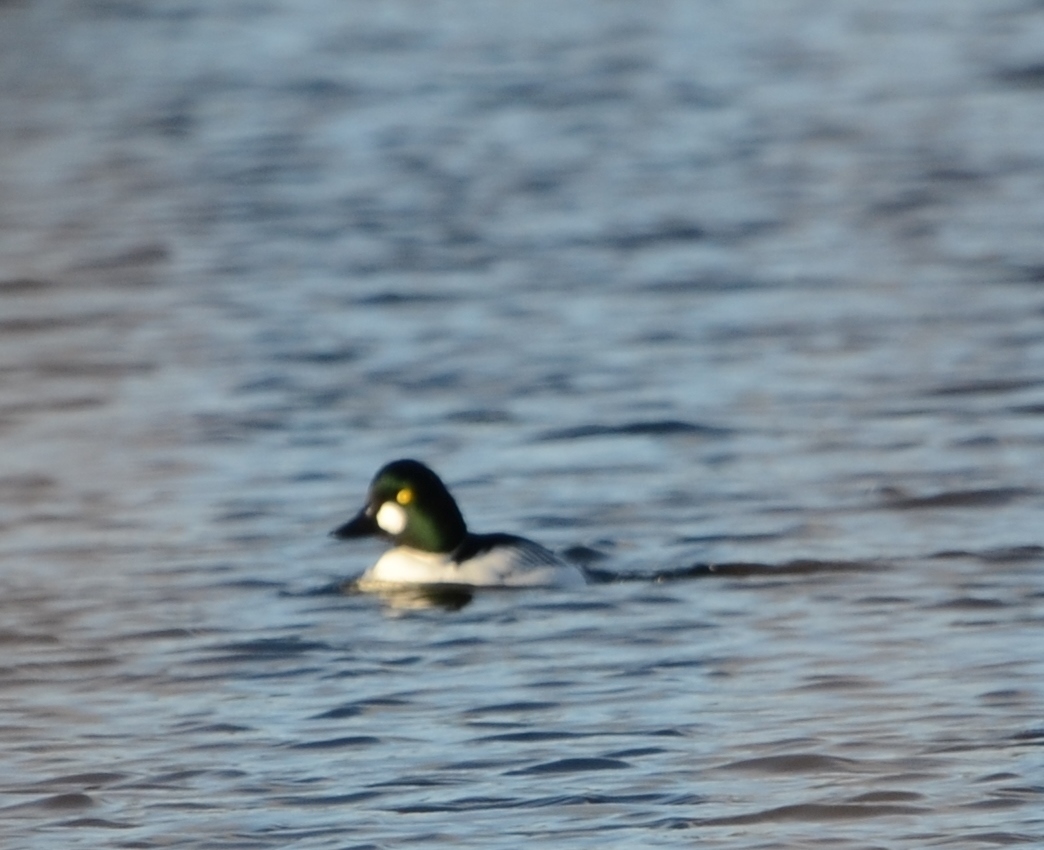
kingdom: Animalia
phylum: Chordata
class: Aves
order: Anseriformes
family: Anatidae
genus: Bucephala
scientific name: Bucephala clangula
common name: Common goldeneye
